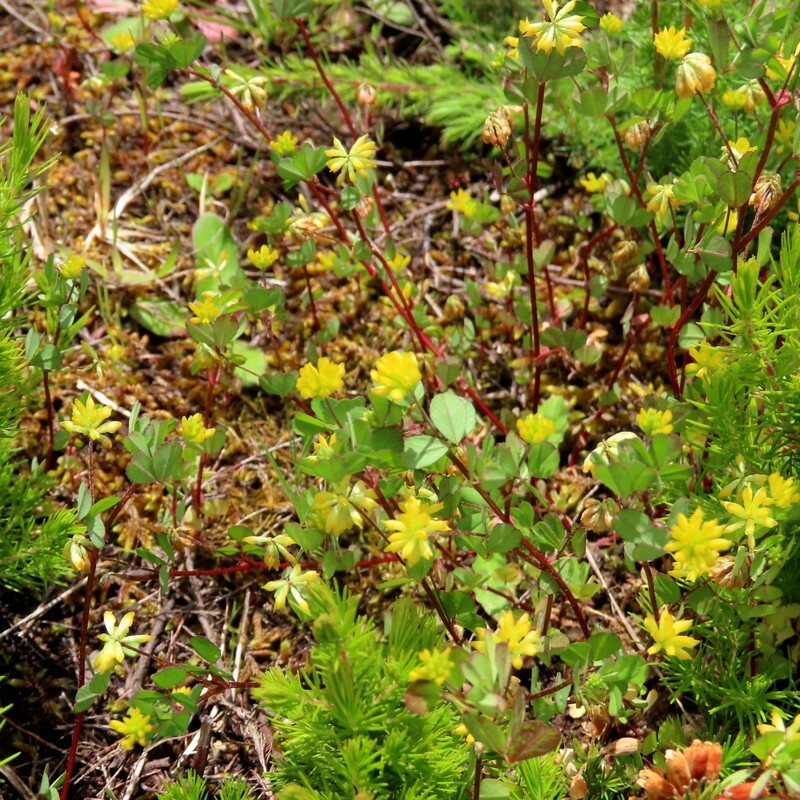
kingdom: Plantae
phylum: Tracheophyta
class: Magnoliopsida
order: Fabales
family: Fabaceae
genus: Trifolium
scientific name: Trifolium dubium
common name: Suckling clover
